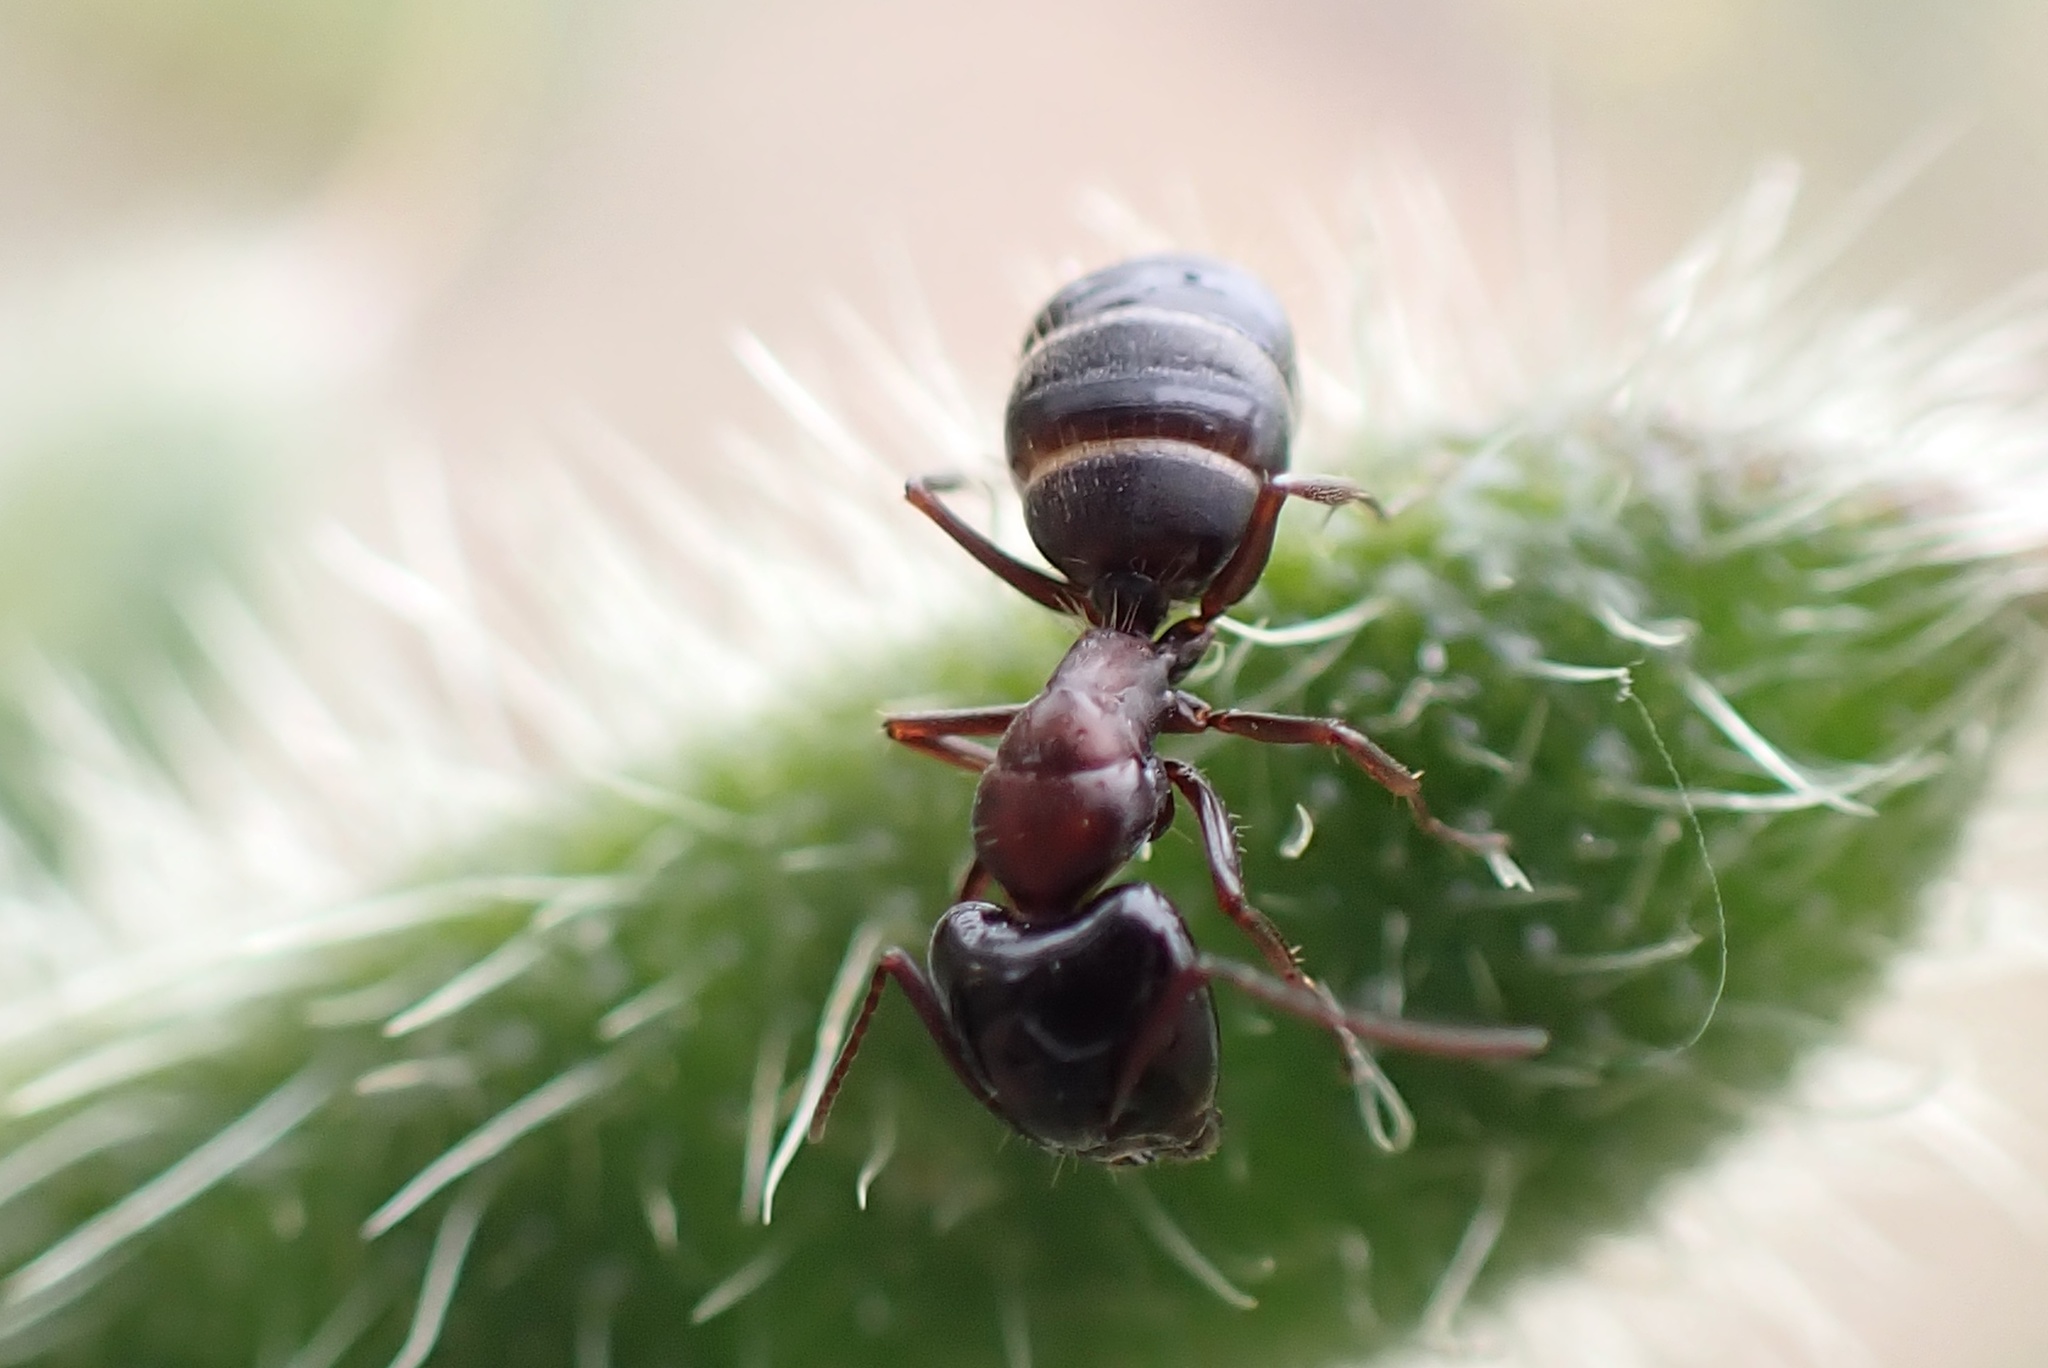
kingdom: Animalia
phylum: Arthropoda
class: Insecta
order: Hymenoptera
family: Formicidae
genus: Camponotus
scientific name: Camponotus anthrax
